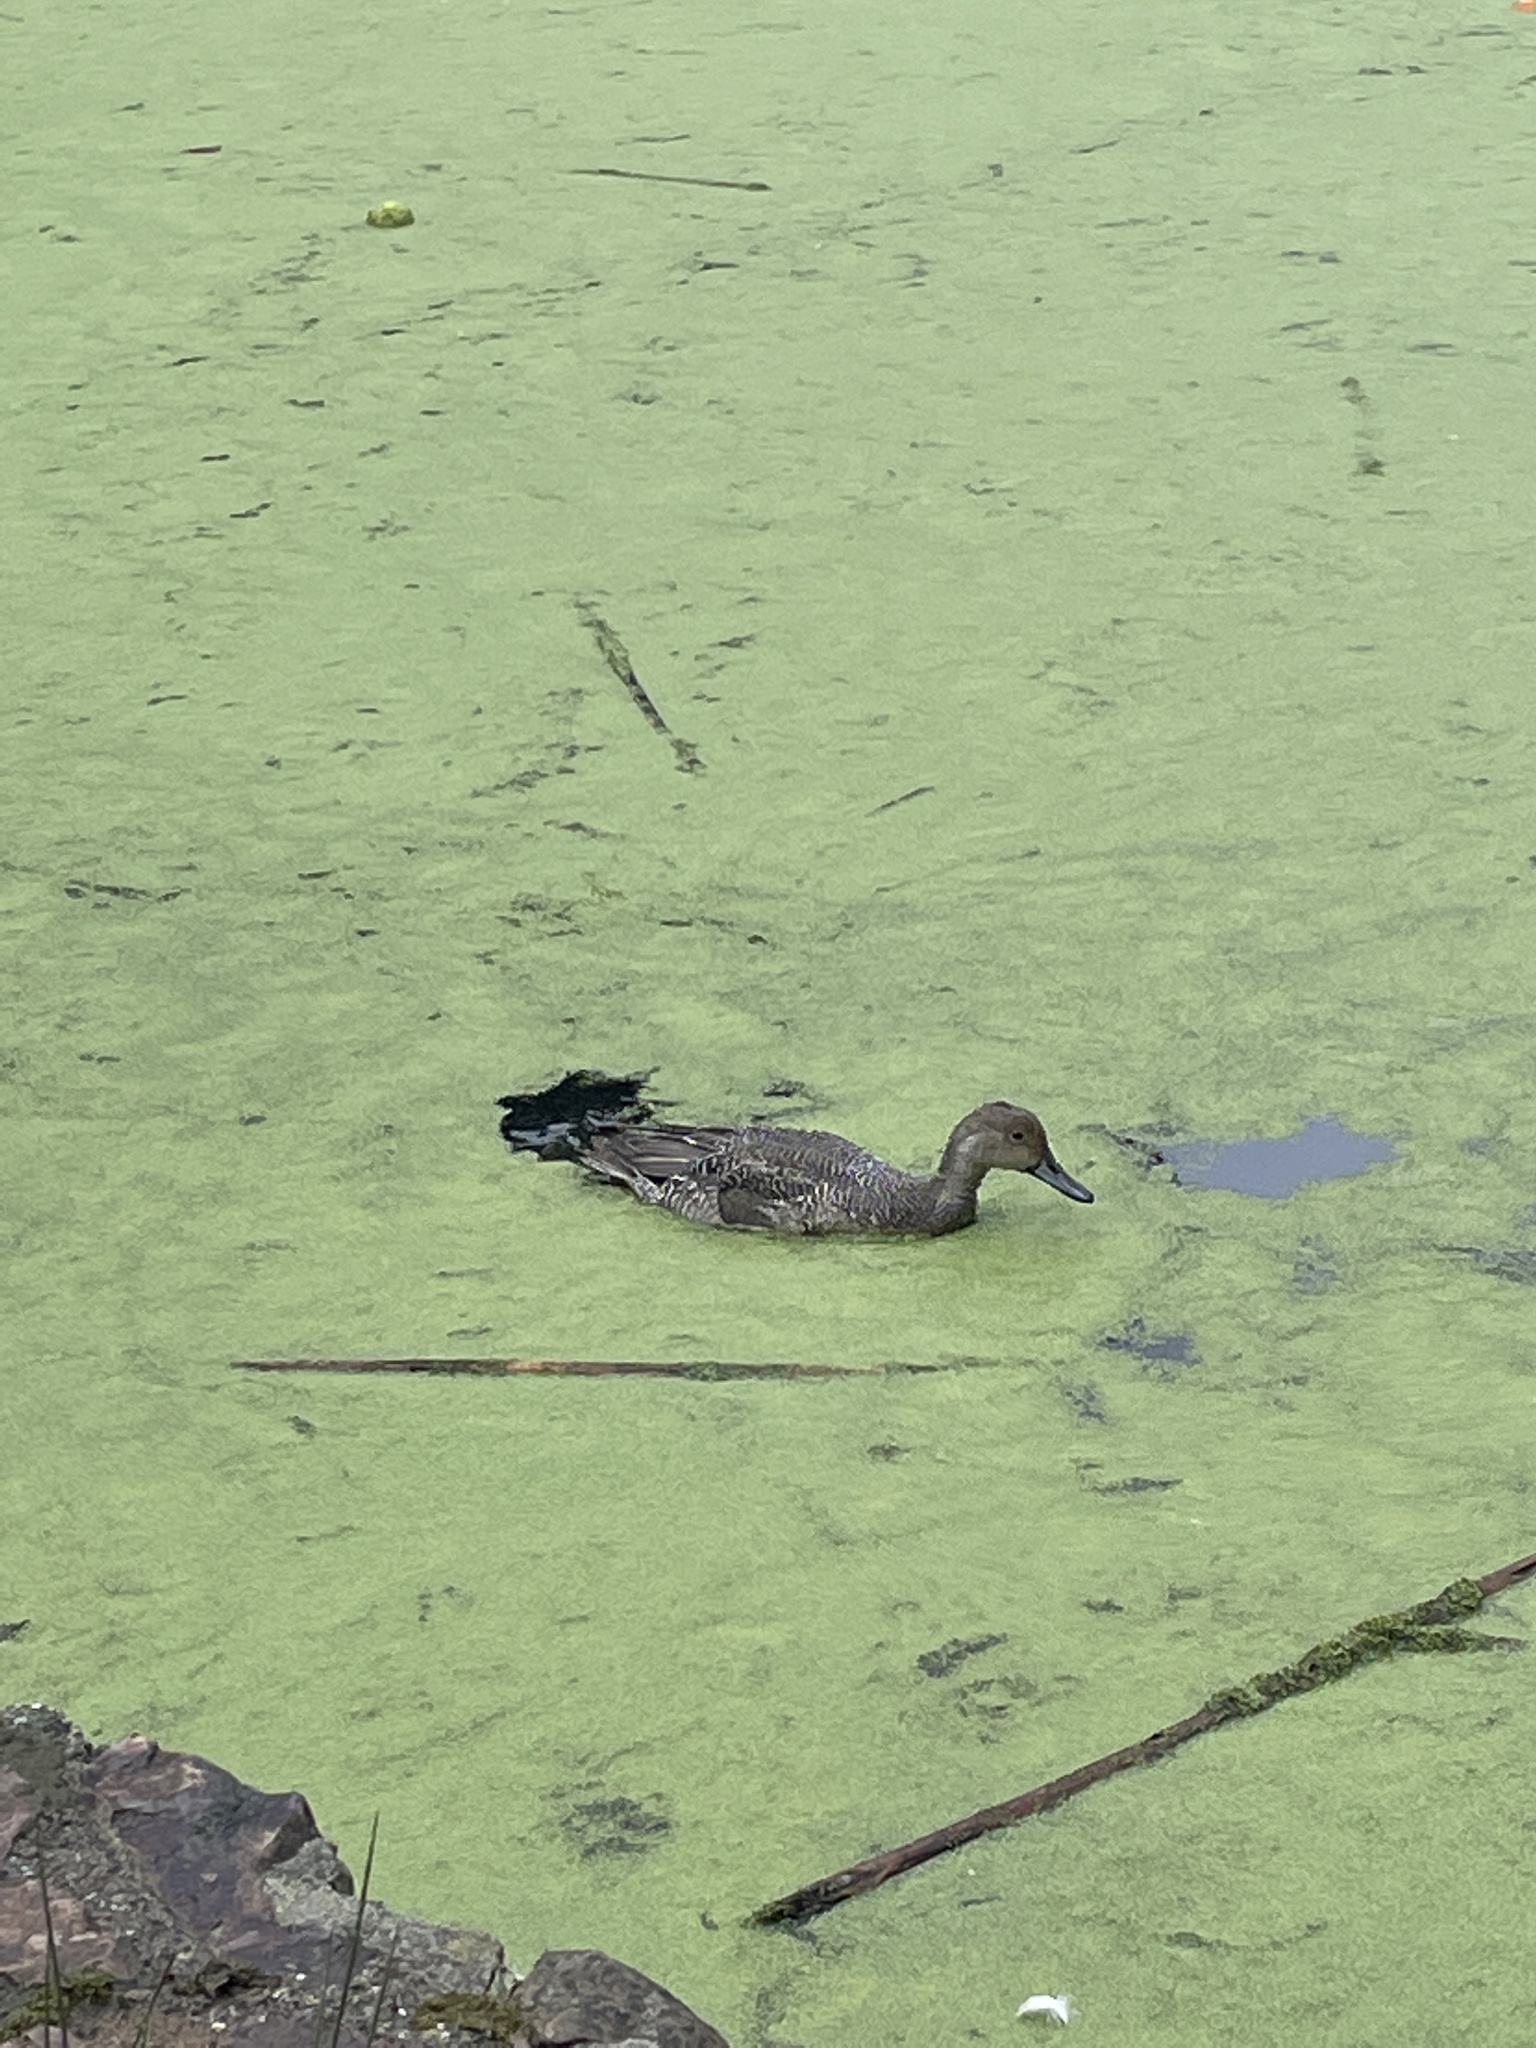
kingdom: Animalia
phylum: Chordata
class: Aves
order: Anseriformes
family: Anatidae
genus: Anas
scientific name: Anas acuta
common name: Northern pintail
